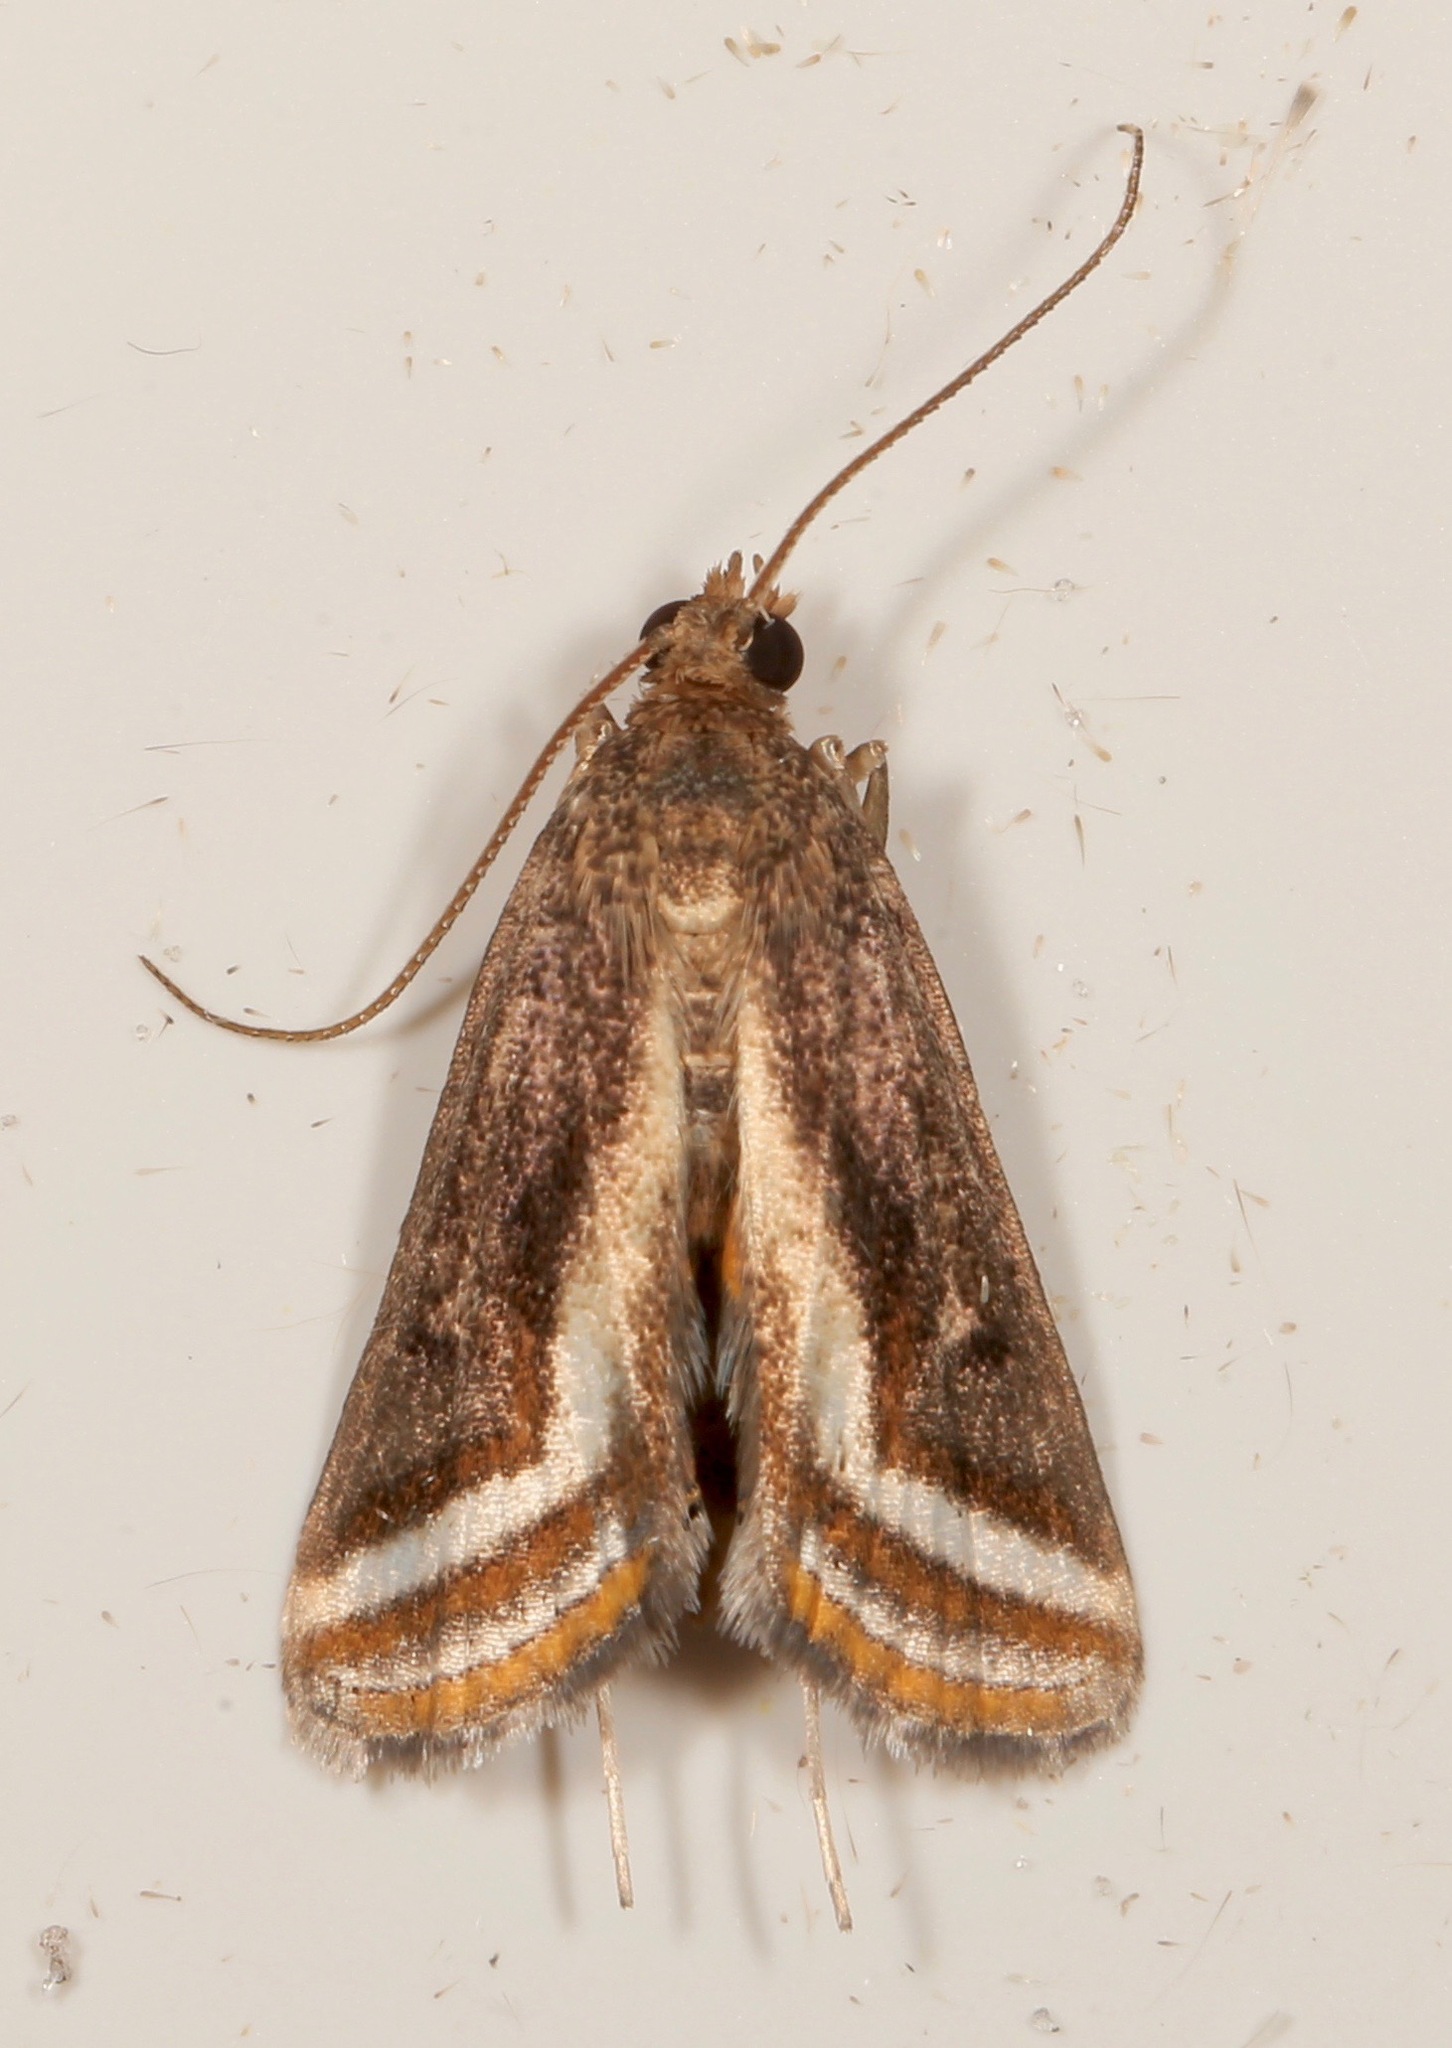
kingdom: Animalia
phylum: Arthropoda
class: Insecta
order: Lepidoptera
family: Crambidae
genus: Parapoynx
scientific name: Parapoynx seminealis
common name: Floating-heart waterlily leafcutter
